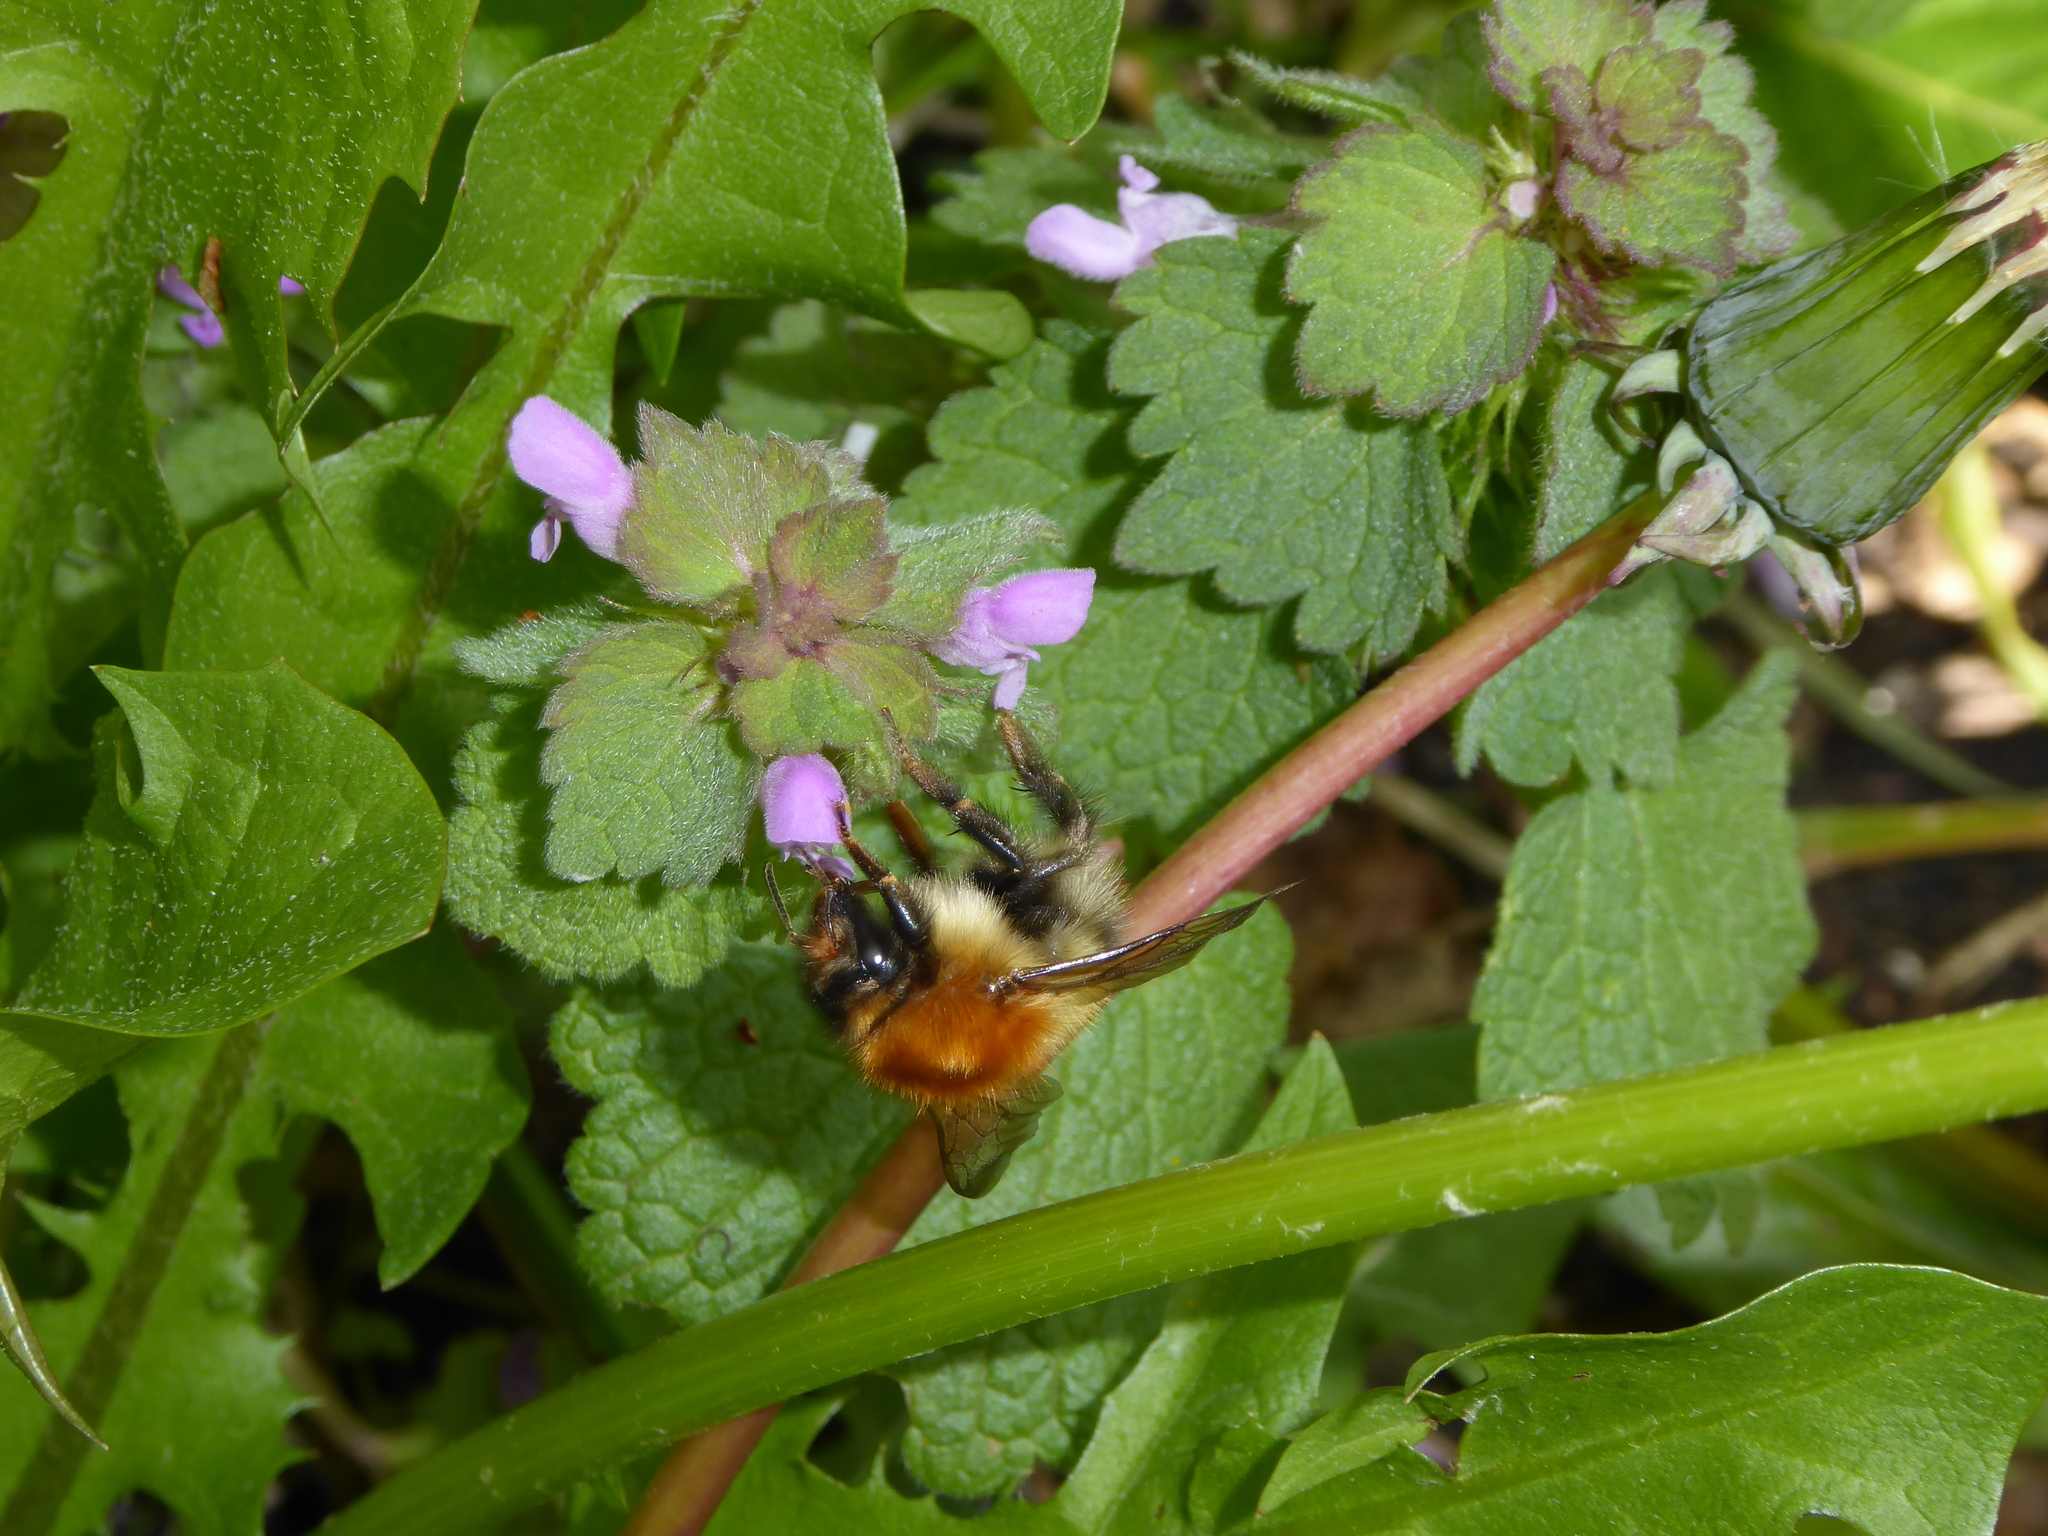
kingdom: Plantae
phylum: Tracheophyta
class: Magnoliopsida
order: Lamiales
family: Lamiaceae
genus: Lamium
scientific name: Lamium purpureum
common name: Red dead-nettle
